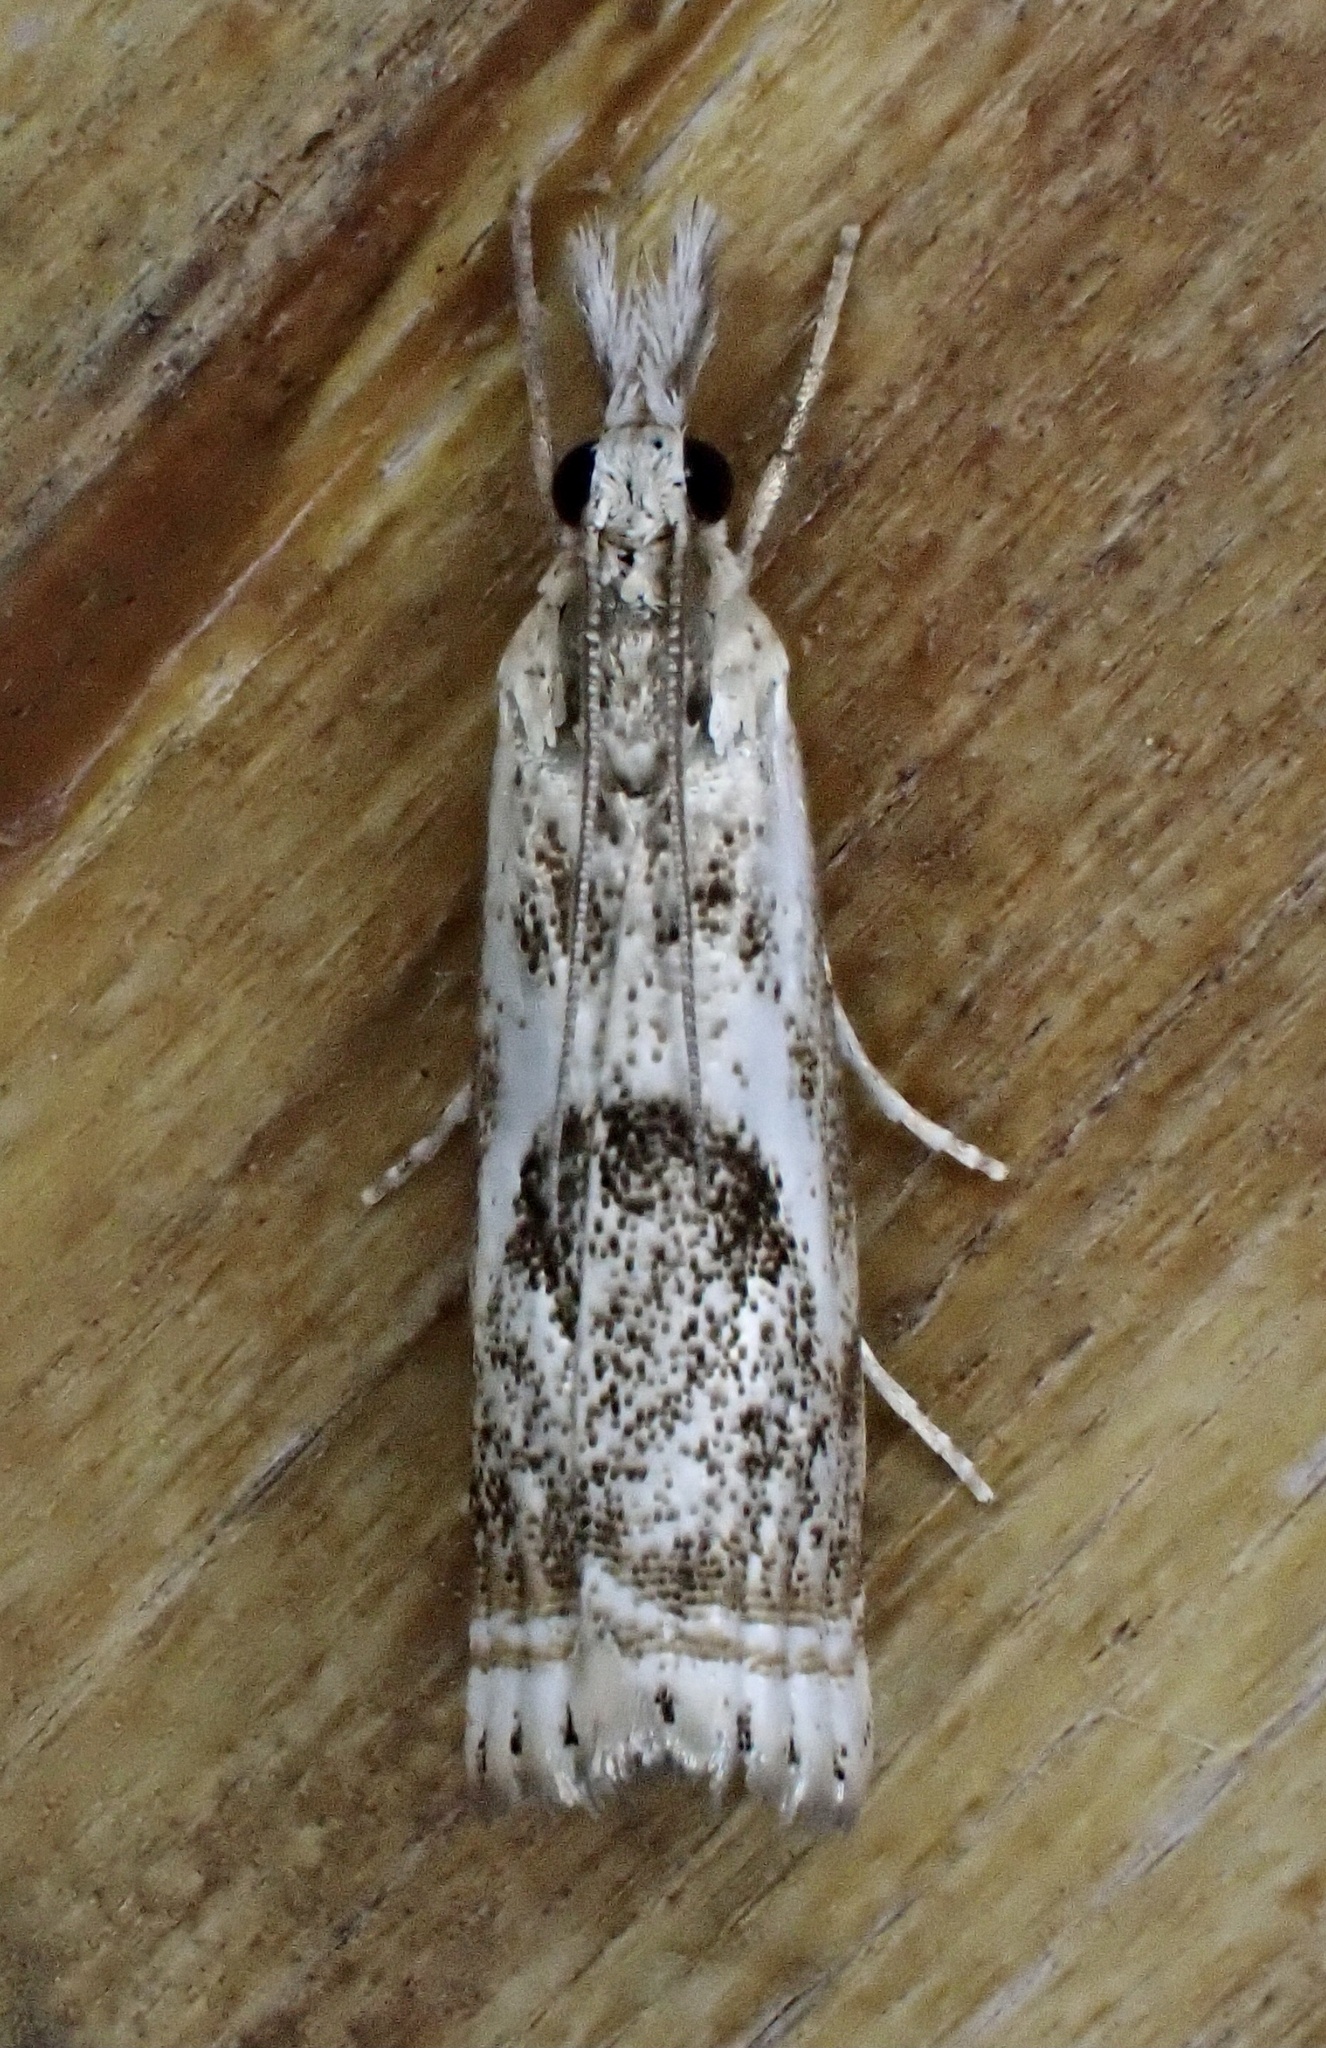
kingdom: Animalia
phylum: Arthropoda
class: Insecta
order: Lepidoptera
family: Crambidae
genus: Microcrambus
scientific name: Microcrambus elegans
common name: Elegant grass-veneer
